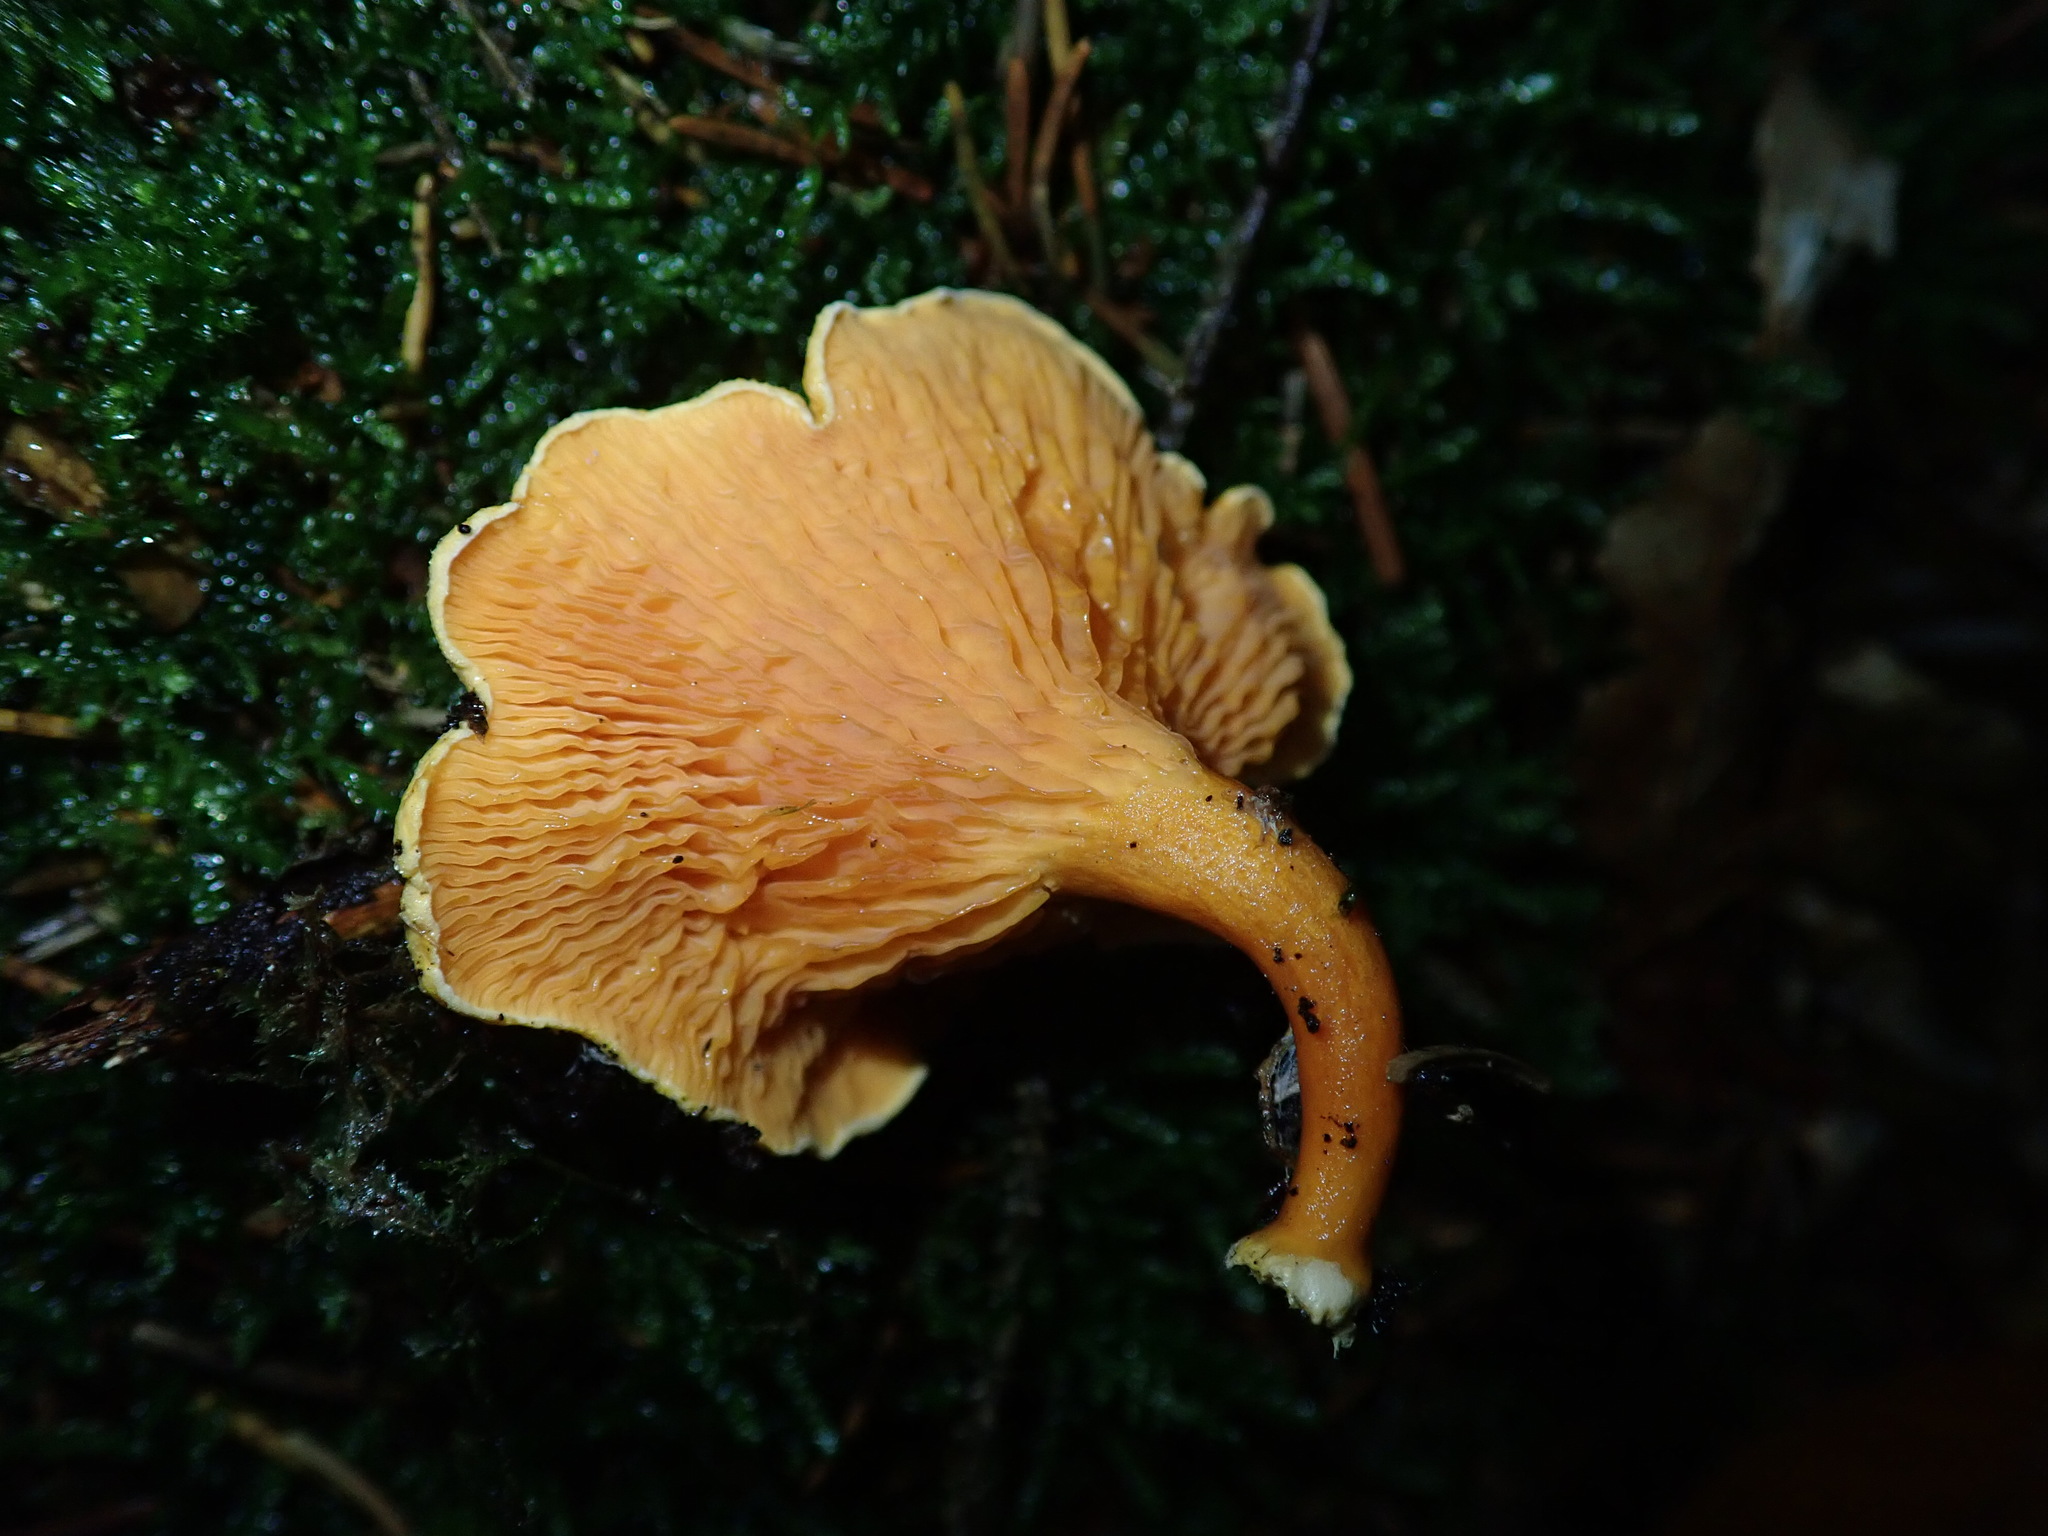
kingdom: Fungi
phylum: Basidiomycota
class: Agaricomycetes
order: Boletales
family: Hygrophoropsidaceae
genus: Hygrophoropsis
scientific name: Hygrophoropsis aurantiaca
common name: False chanterelle
